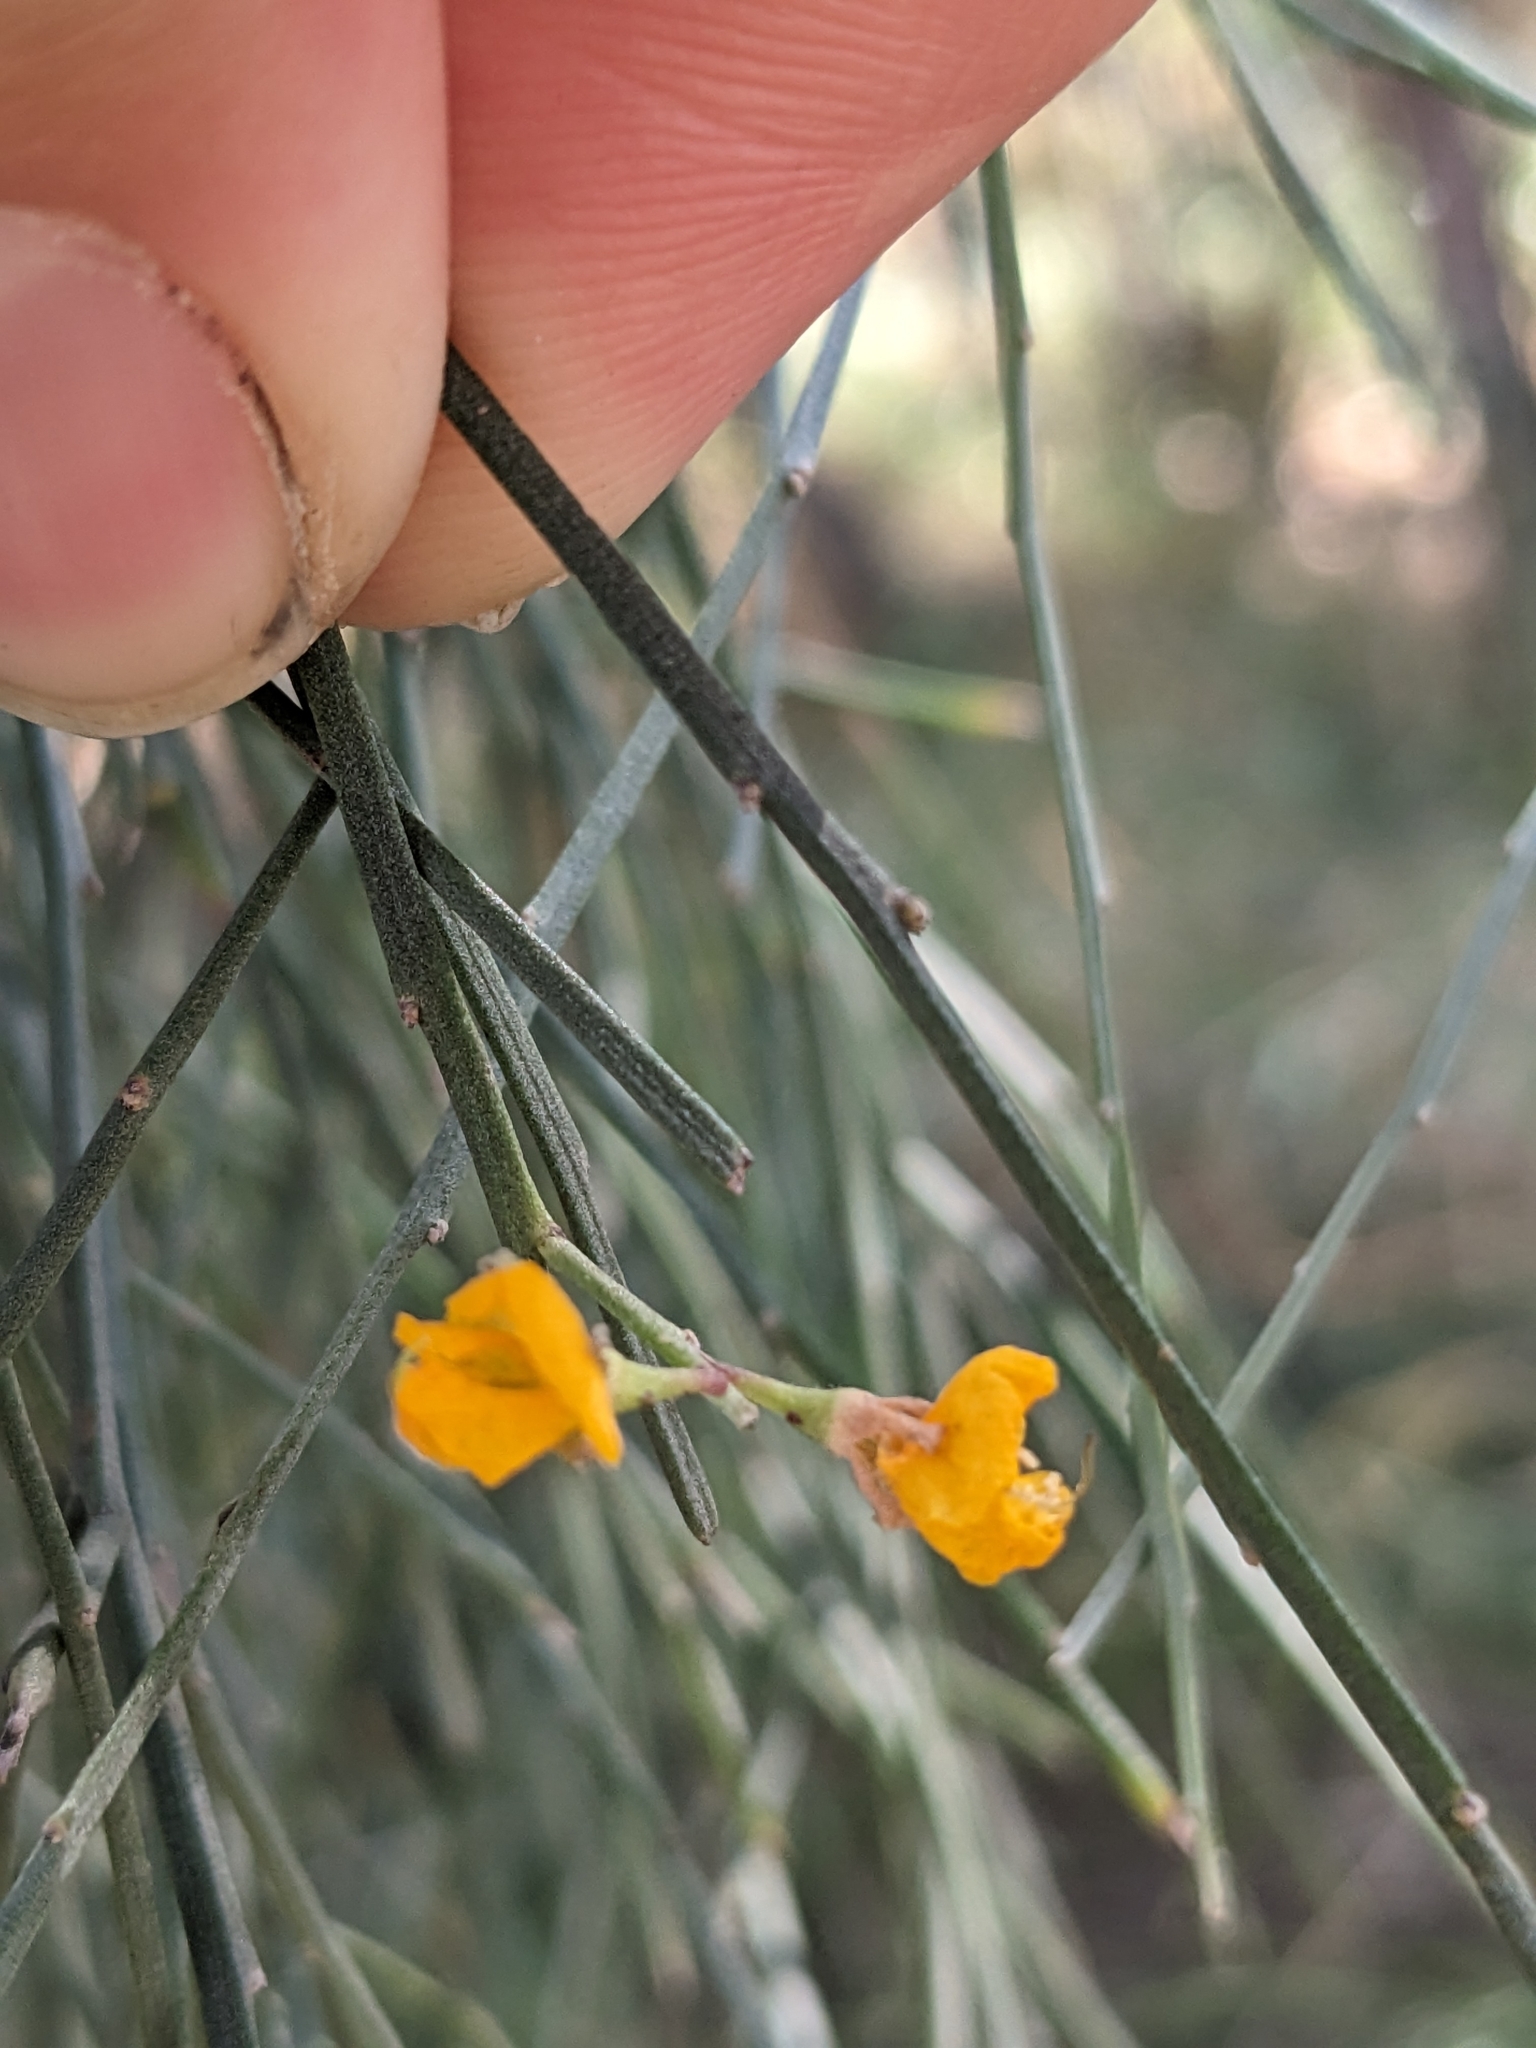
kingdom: Plantae
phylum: Tracheophyta
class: Magnoliopsida
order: Fabales
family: Fabaceae
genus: Jacksonia
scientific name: Jacksonia scoparia
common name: Dogwood
